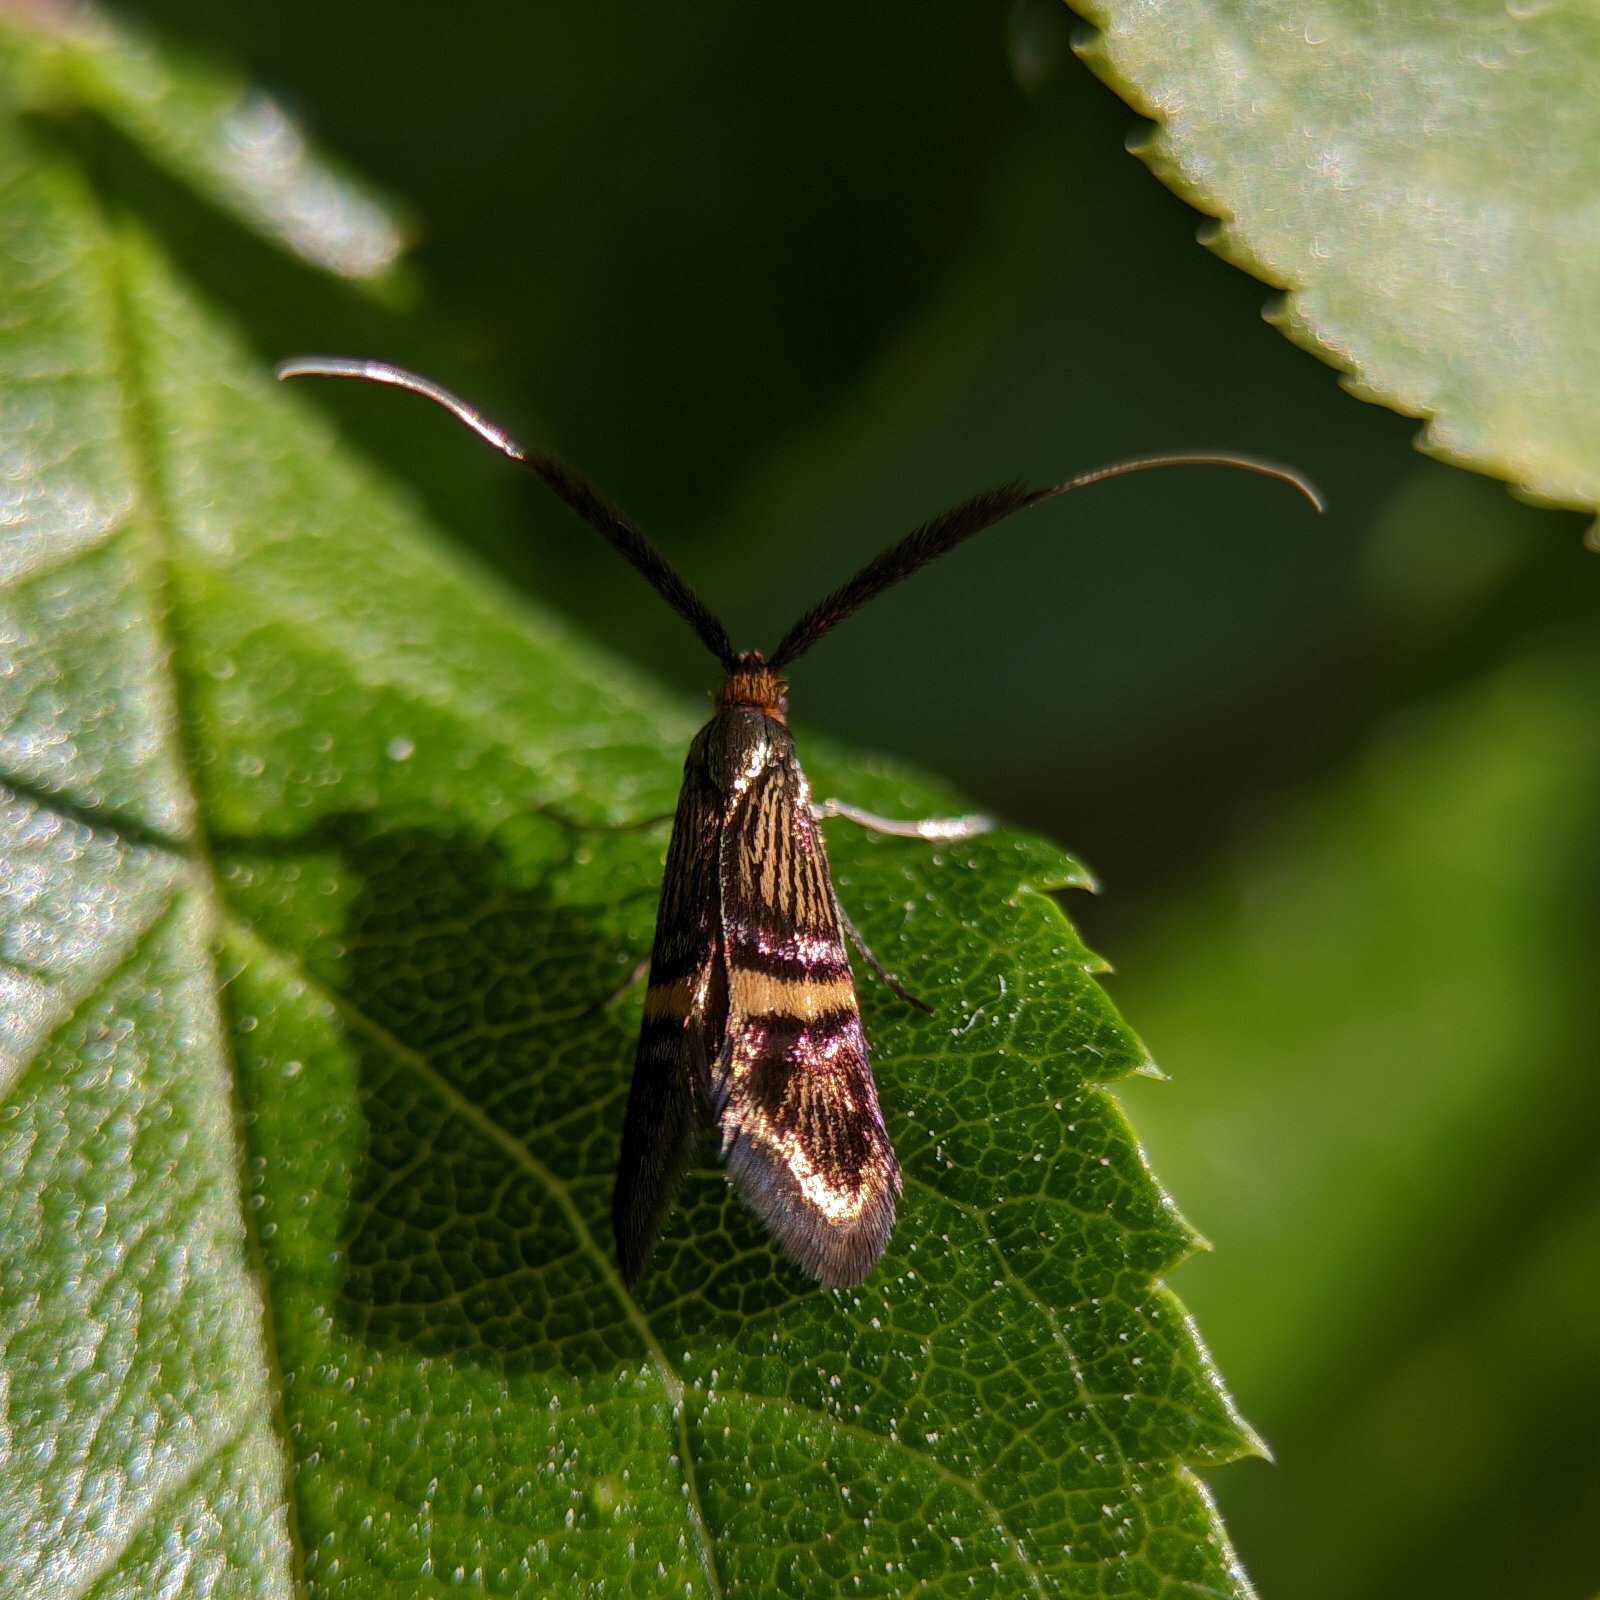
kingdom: Animalia
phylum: Arthropoda
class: Insecta
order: Lepidoptera
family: Adelidae
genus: Adela
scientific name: Adela croesella
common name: Small barred long-horn
